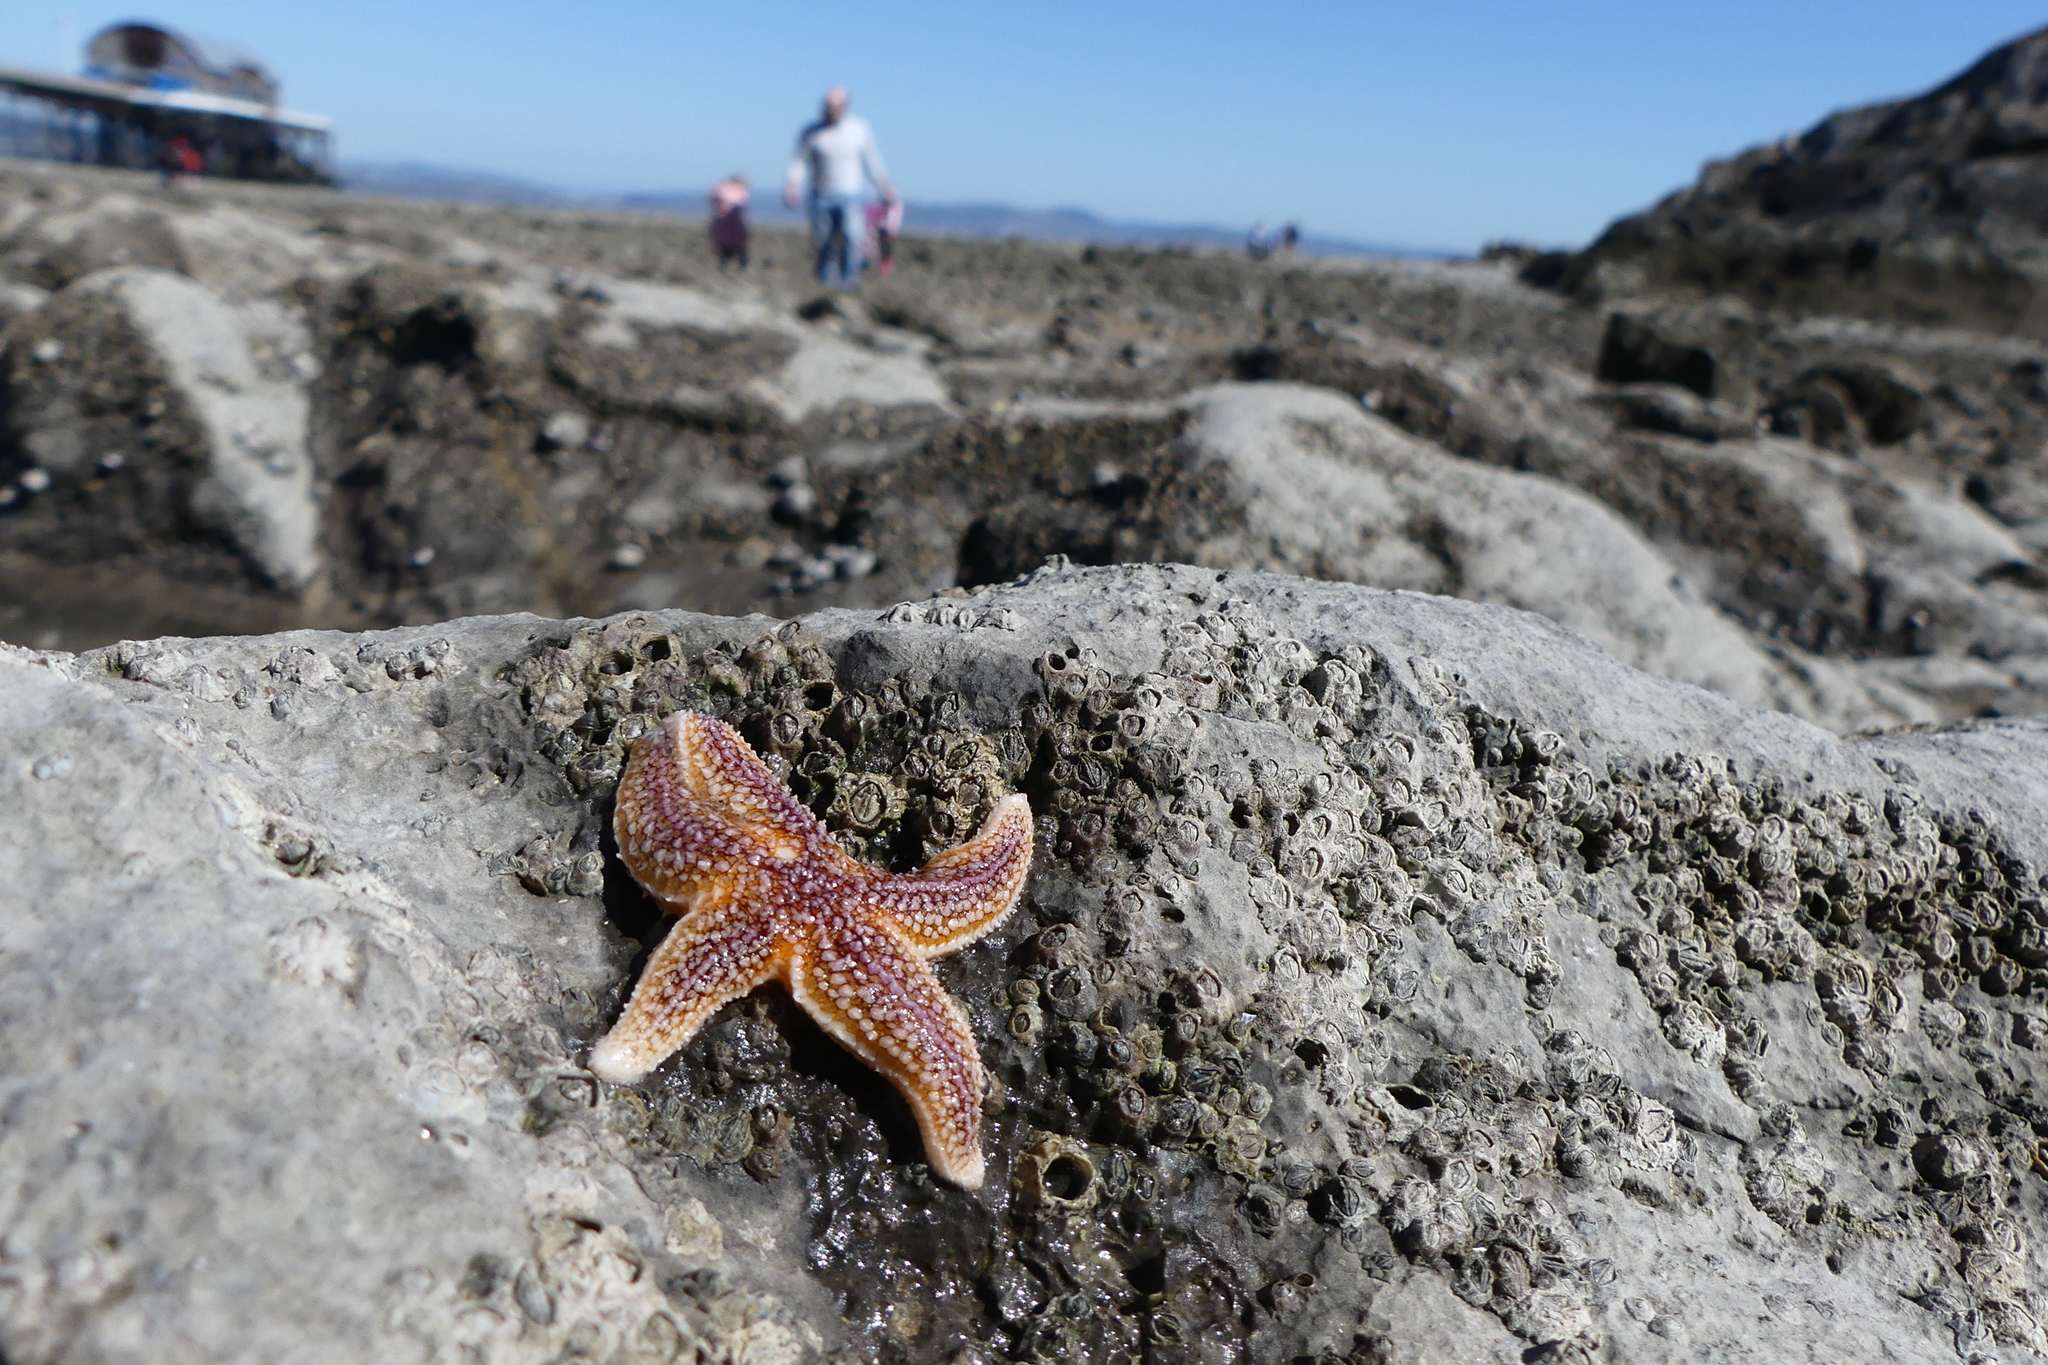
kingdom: Animalia
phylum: Echinodermata
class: Asteroidea
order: Forcipulatida
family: Asteriidae
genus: Asterias
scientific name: Asterias rubens
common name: Common starfish
